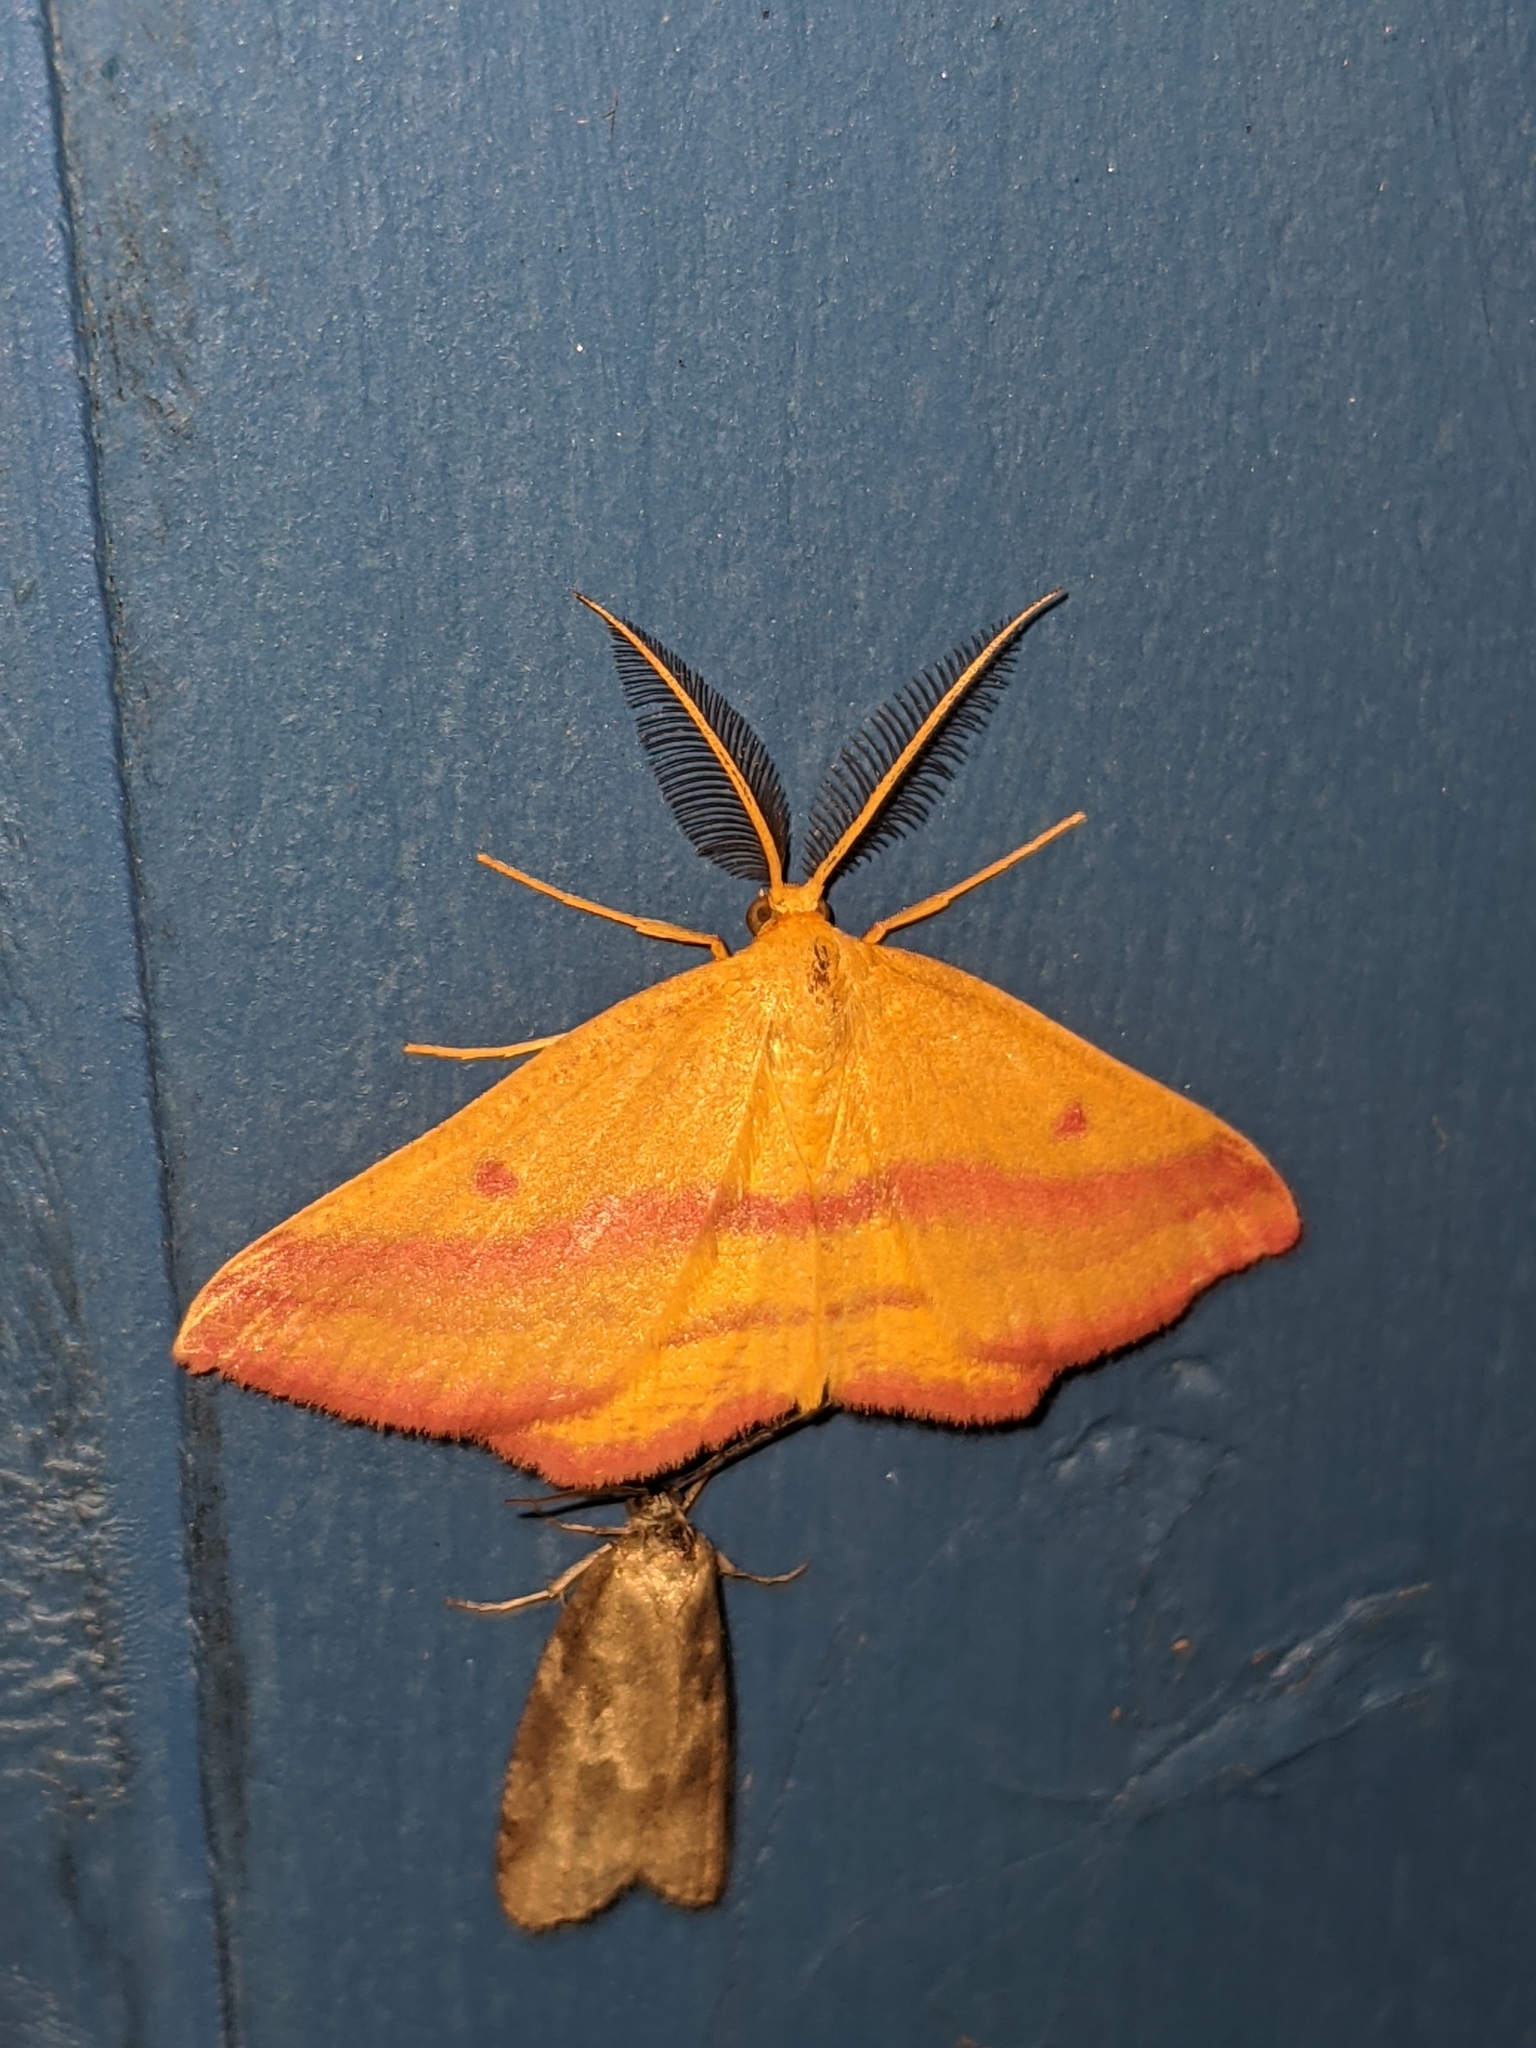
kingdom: Animalia
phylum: Arthropoda
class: Insecta
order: Lepidoptera
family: Geometridae
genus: Haematopis
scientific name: Haematopis grataria
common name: Chickweed geometer
